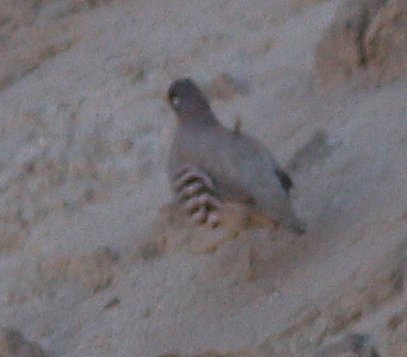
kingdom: Animalia
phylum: Chordata
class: Aves
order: Galliformes
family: Phasianidae
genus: Ammoperdix
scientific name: Ammoperdix heyi
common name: Sand partridge
